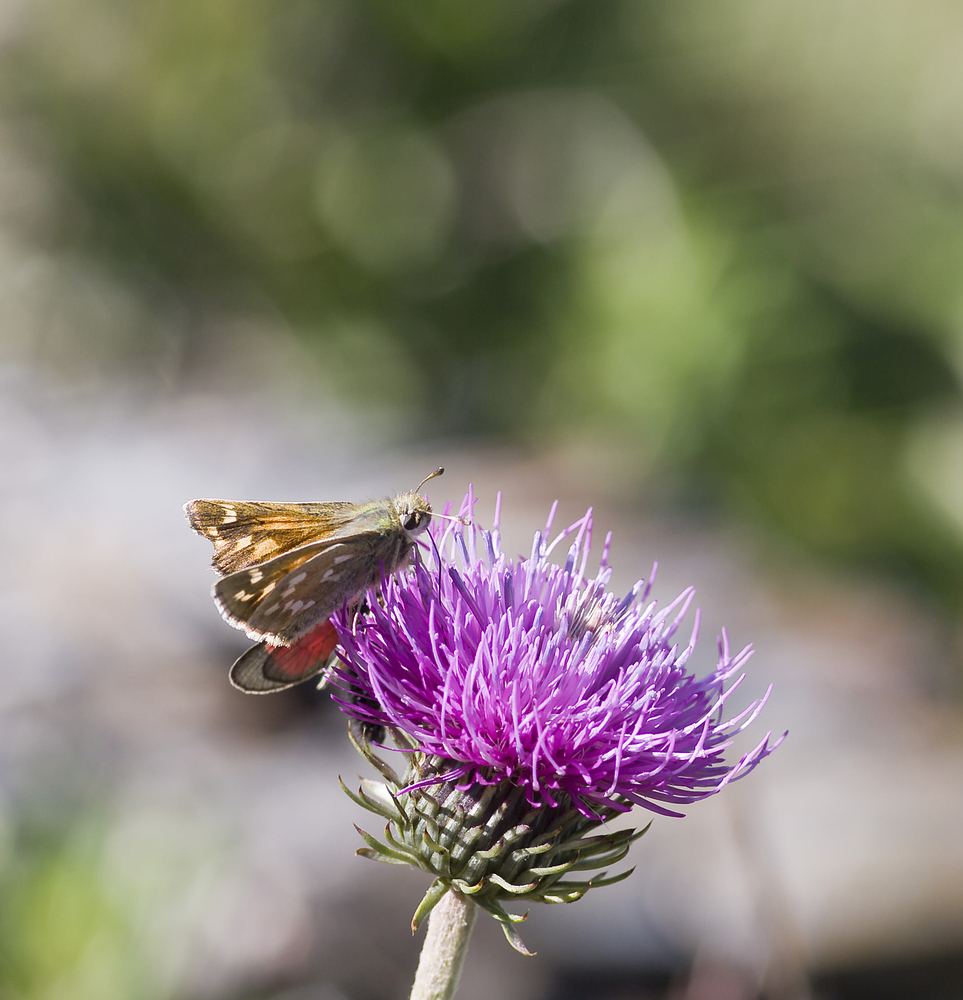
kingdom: Animalia
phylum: Arthropoda
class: Insecta
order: Lepidoptera
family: Hesperiidae
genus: Hesperia
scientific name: Hesperia comma
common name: Common branded skipper
